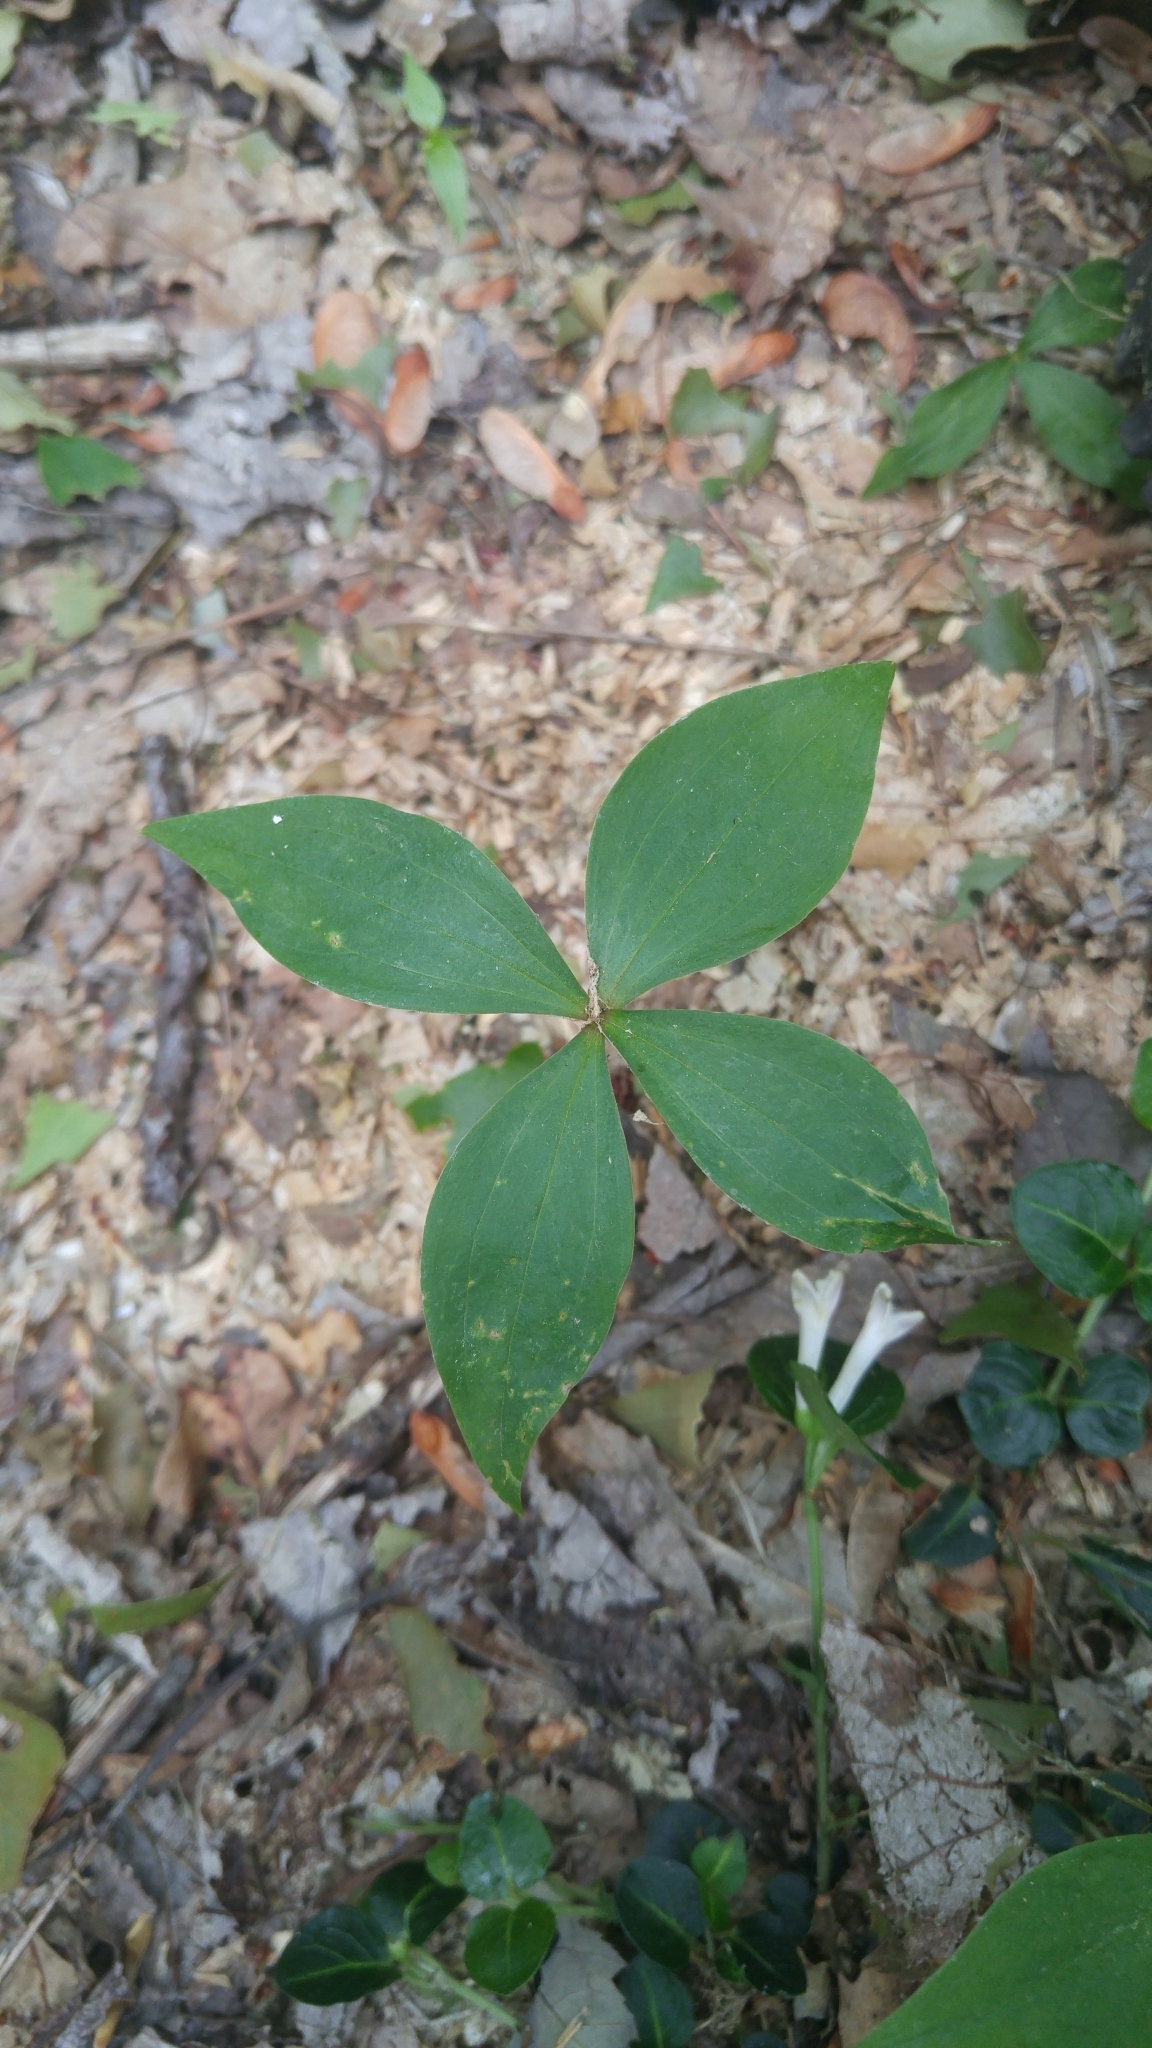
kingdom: Plantae
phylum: Tracheophyta
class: Liliopsida
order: Liliales
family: Liliaceae
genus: Medeola
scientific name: Medeola virginiana
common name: Indian cucumber-root
